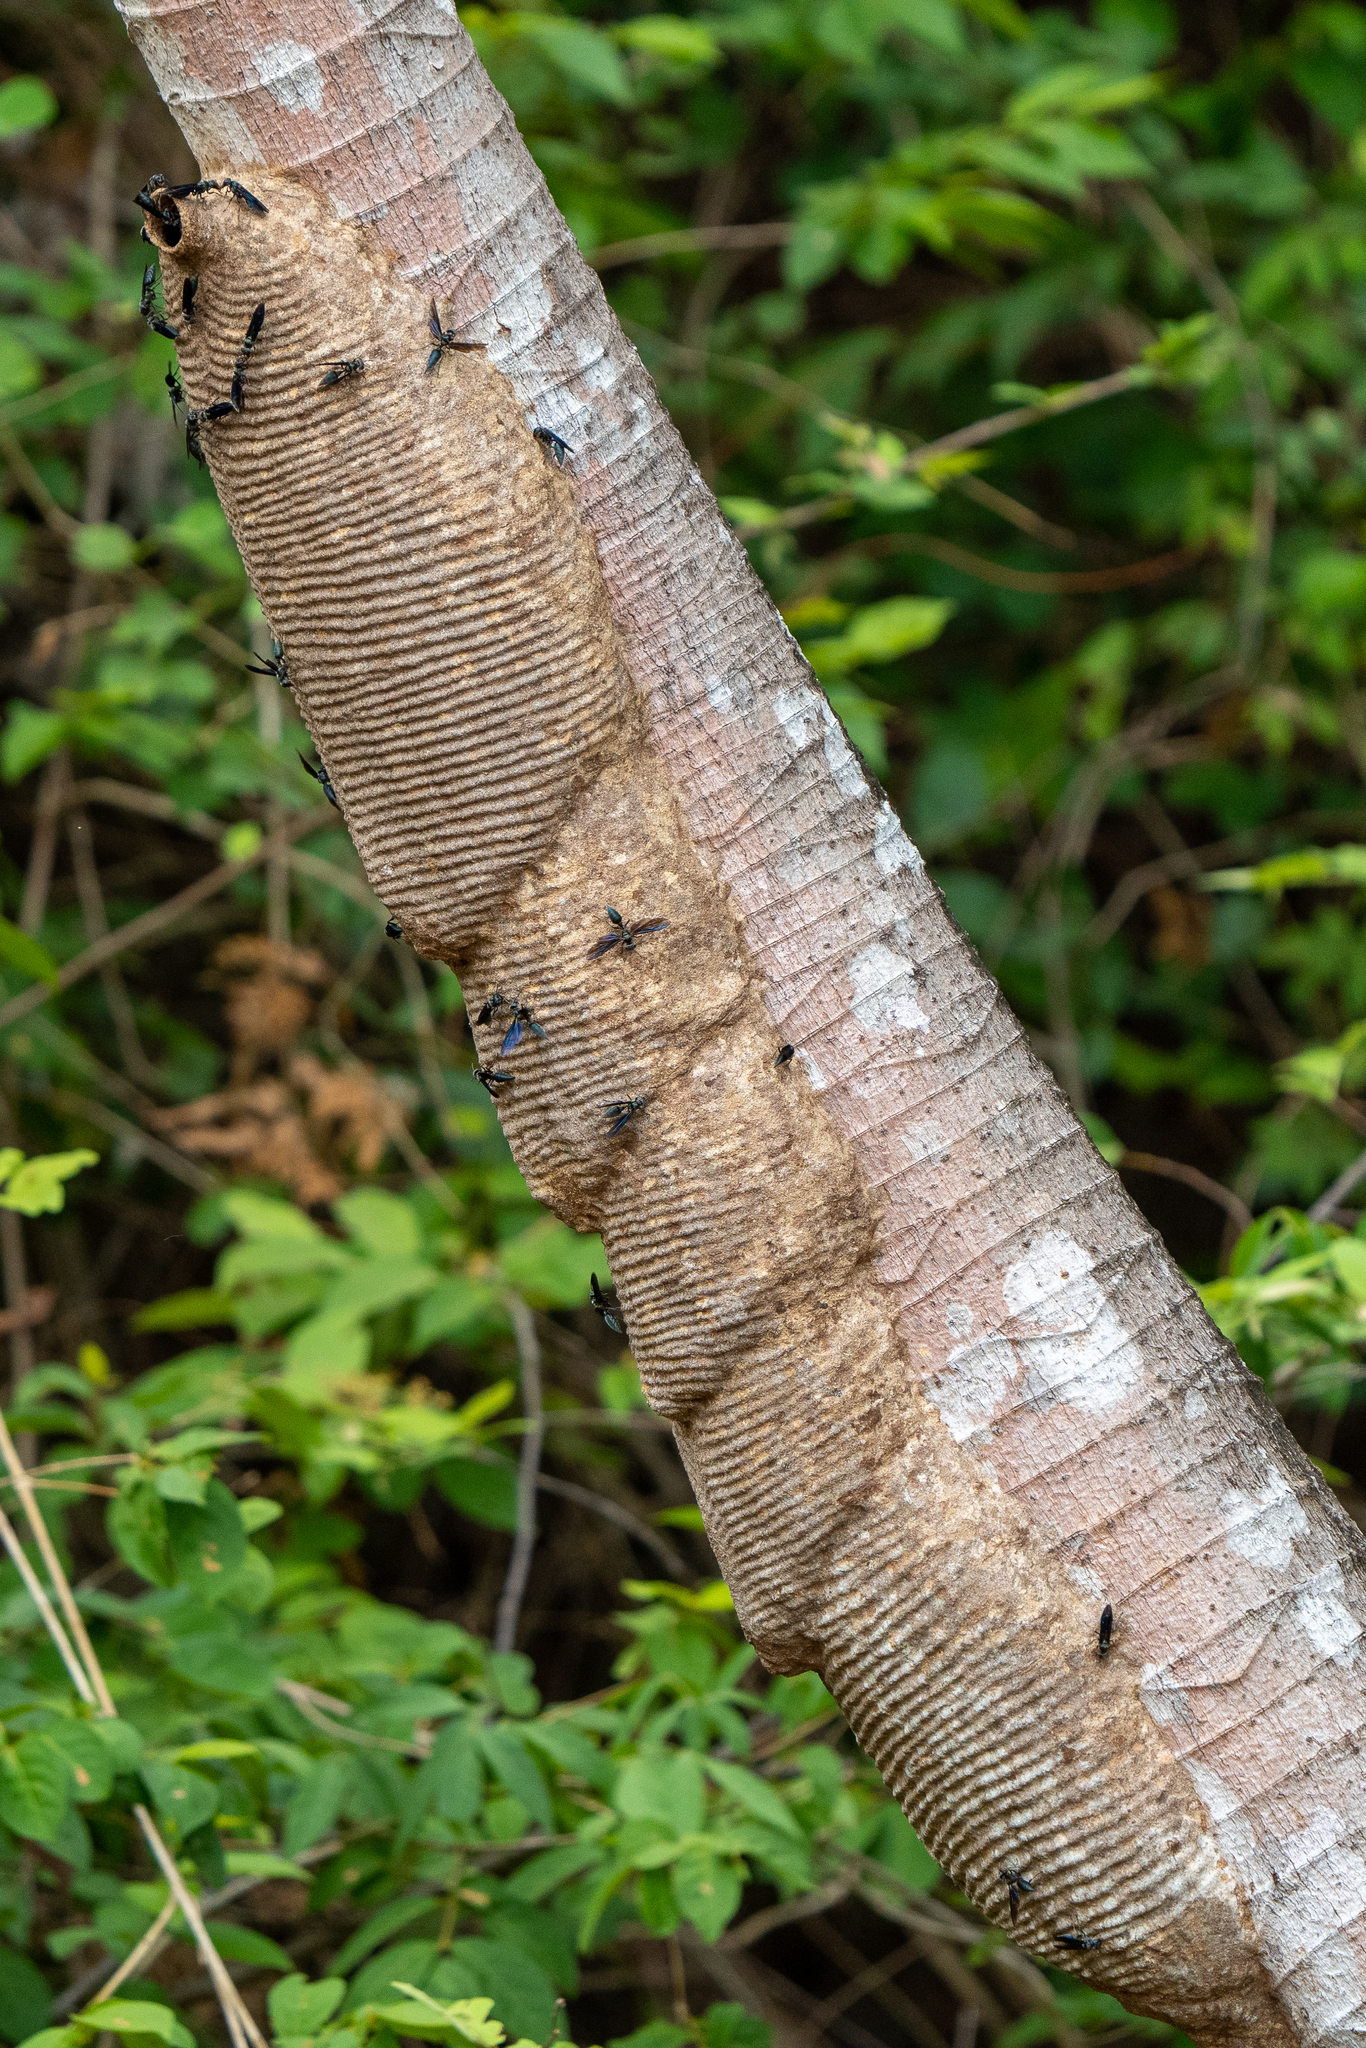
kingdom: Animalia
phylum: Arthropoda
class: Insecta
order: Hymenoptera
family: Vespidae
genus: Synoeca
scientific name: Synoeca septentrionalis
